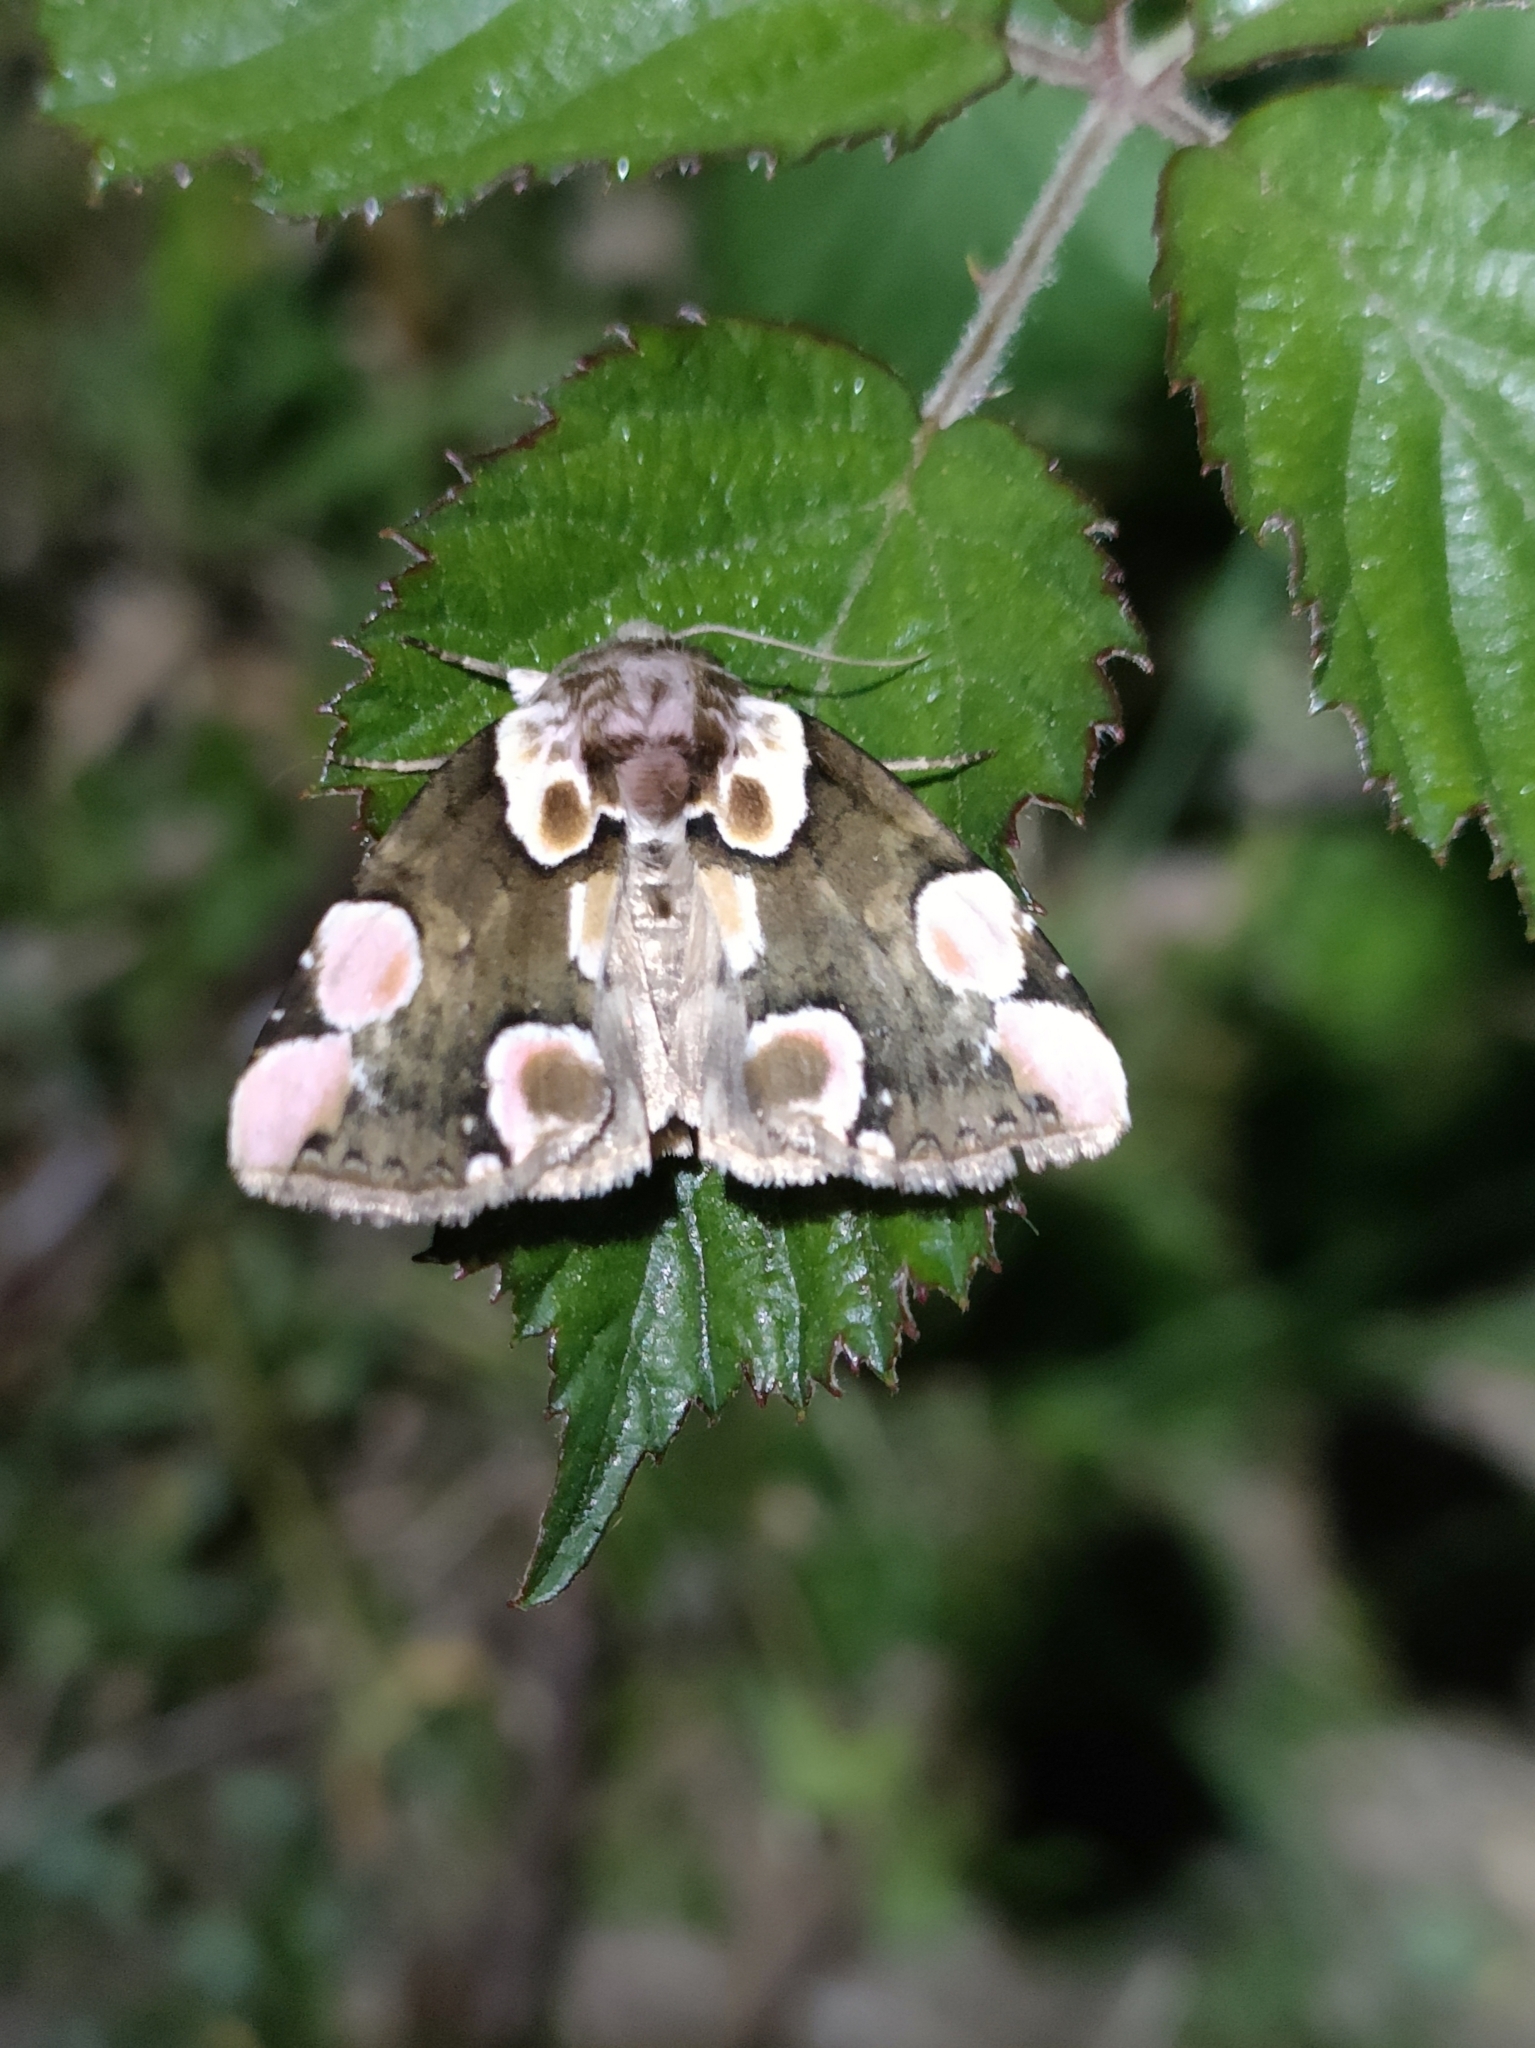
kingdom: Animalia
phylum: Arthropoda
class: Insecta
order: Lepidoptera
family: Drepanidae
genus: Thyatira
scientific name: Thyatira batis
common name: Peach blossom
